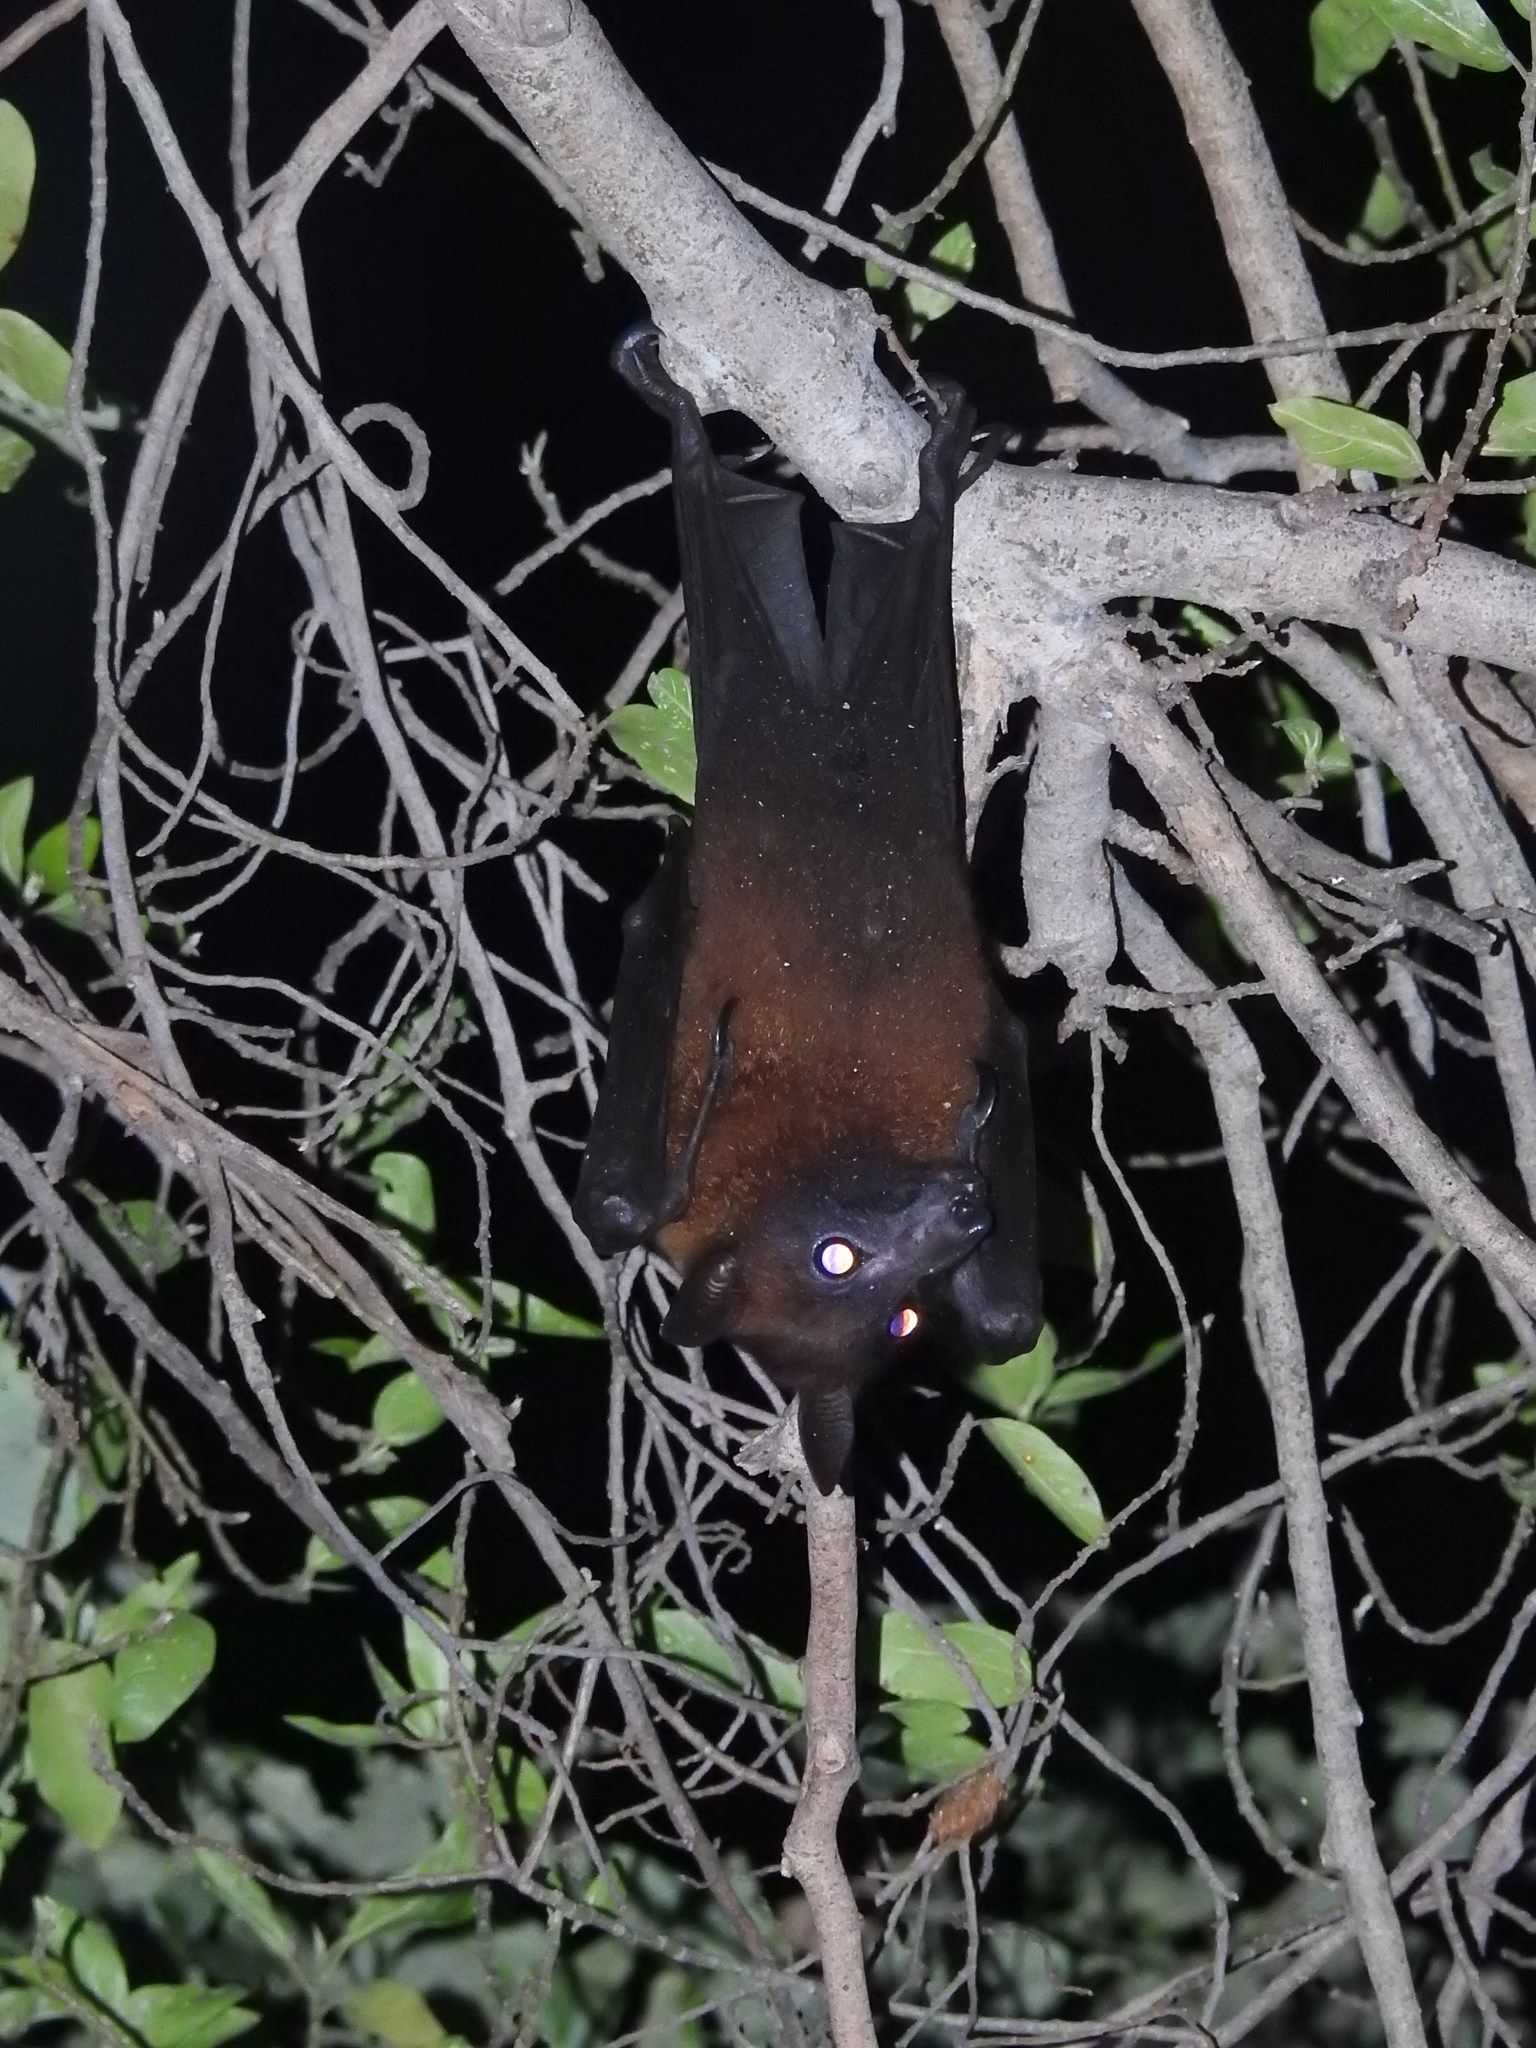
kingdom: Animalia
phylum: Chordata
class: Mammalia
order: Chiroptera
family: Pteropodidae
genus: Pteropus
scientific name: Pteropus vampyrus
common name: Large flying fox
